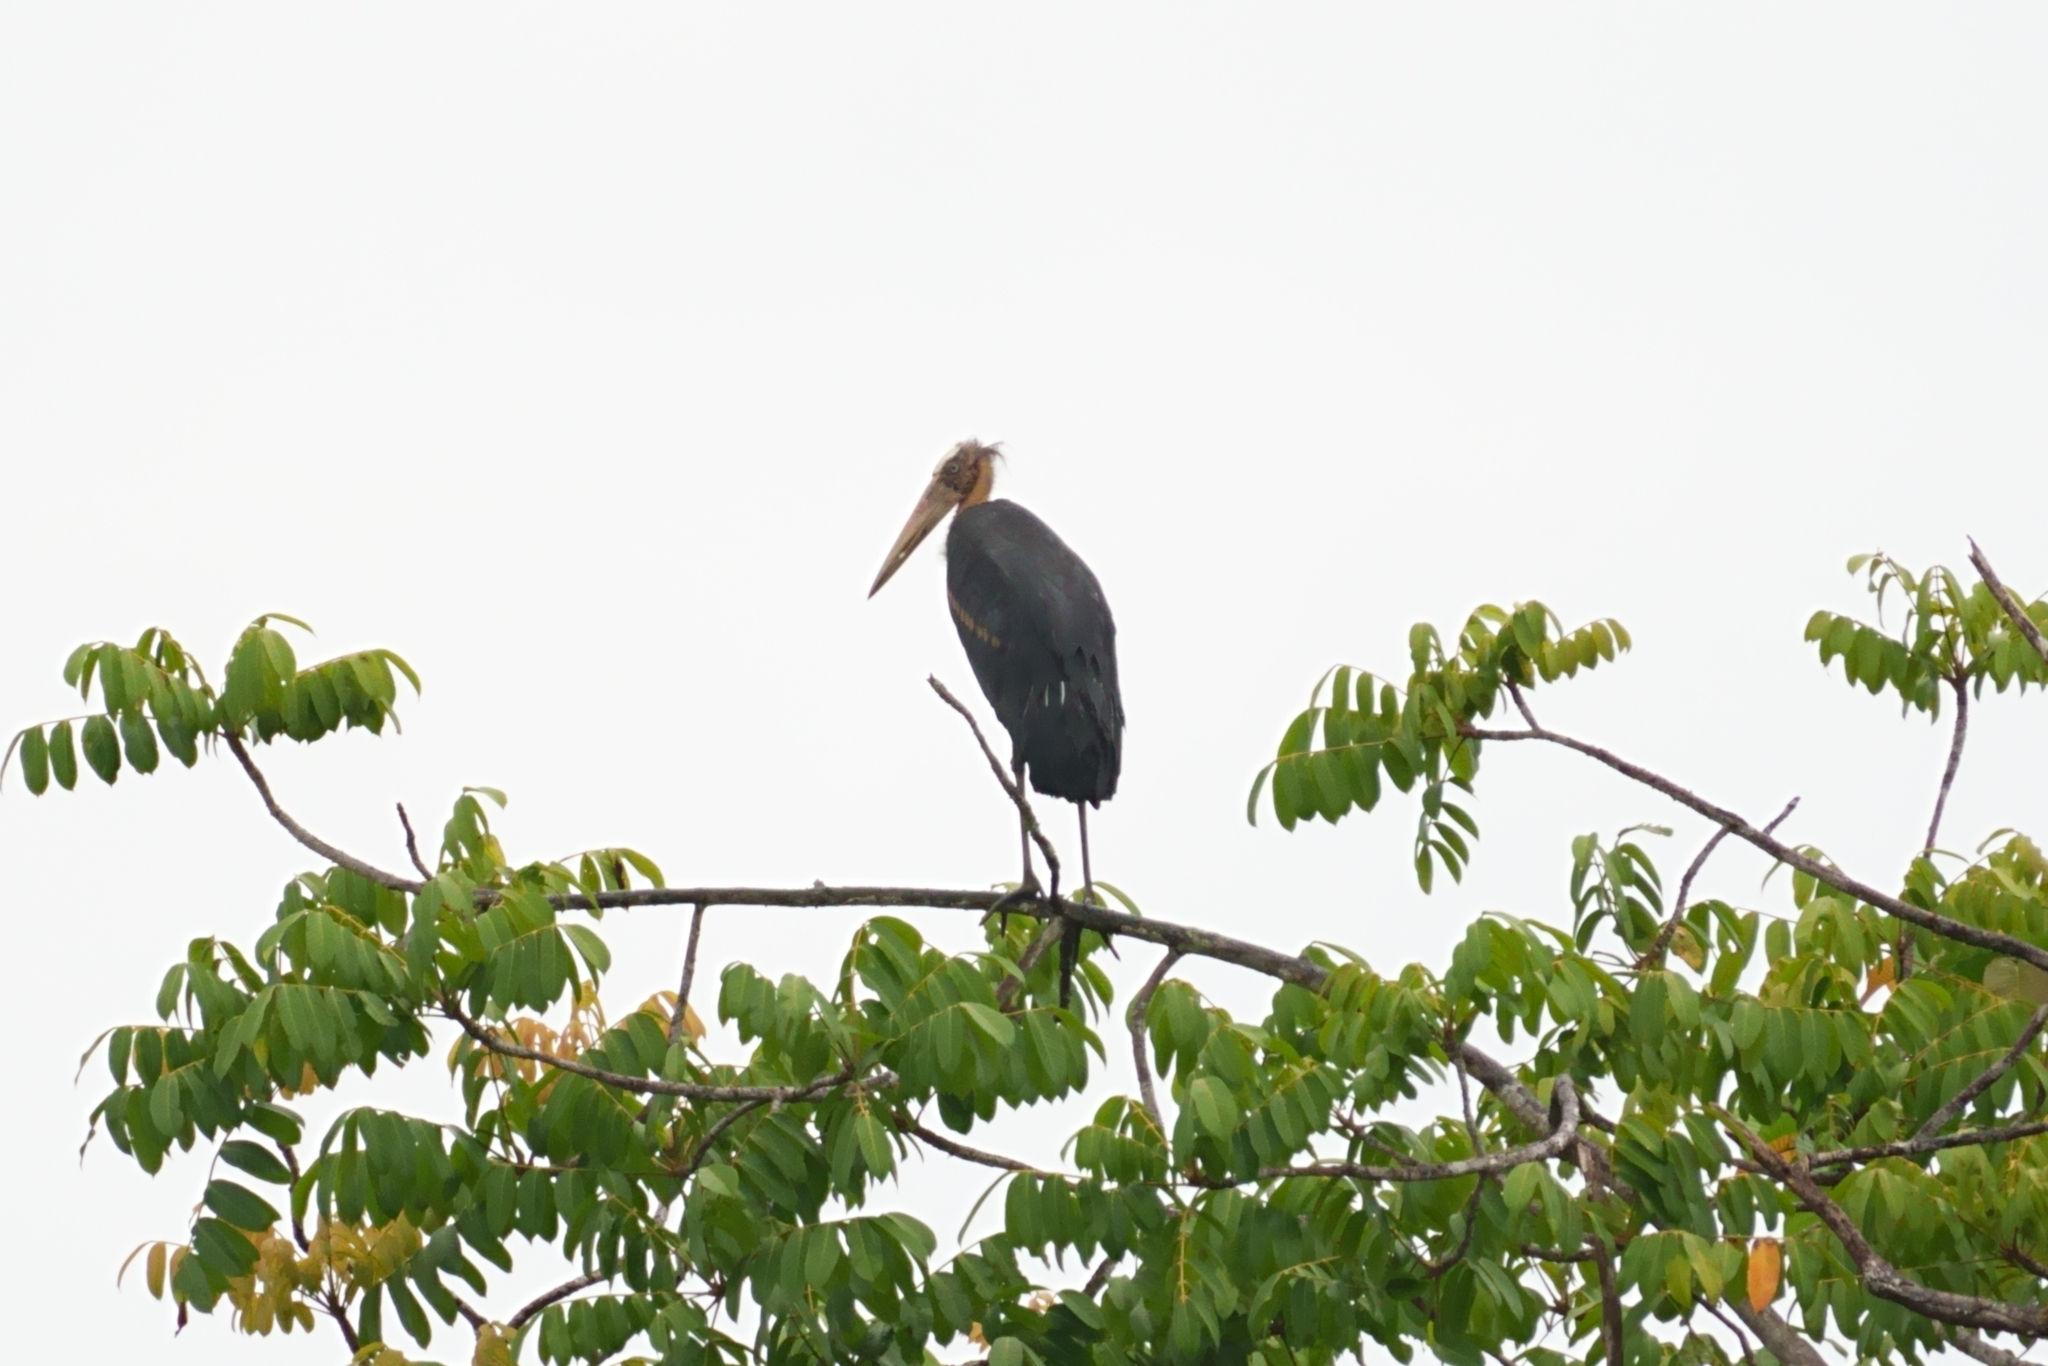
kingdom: Animalia
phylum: Chordata
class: Aves
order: Ciconiiformes
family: Ciconiidae
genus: Leptoptilos
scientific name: Leptoptilos javanicus
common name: Lesser adjutant
